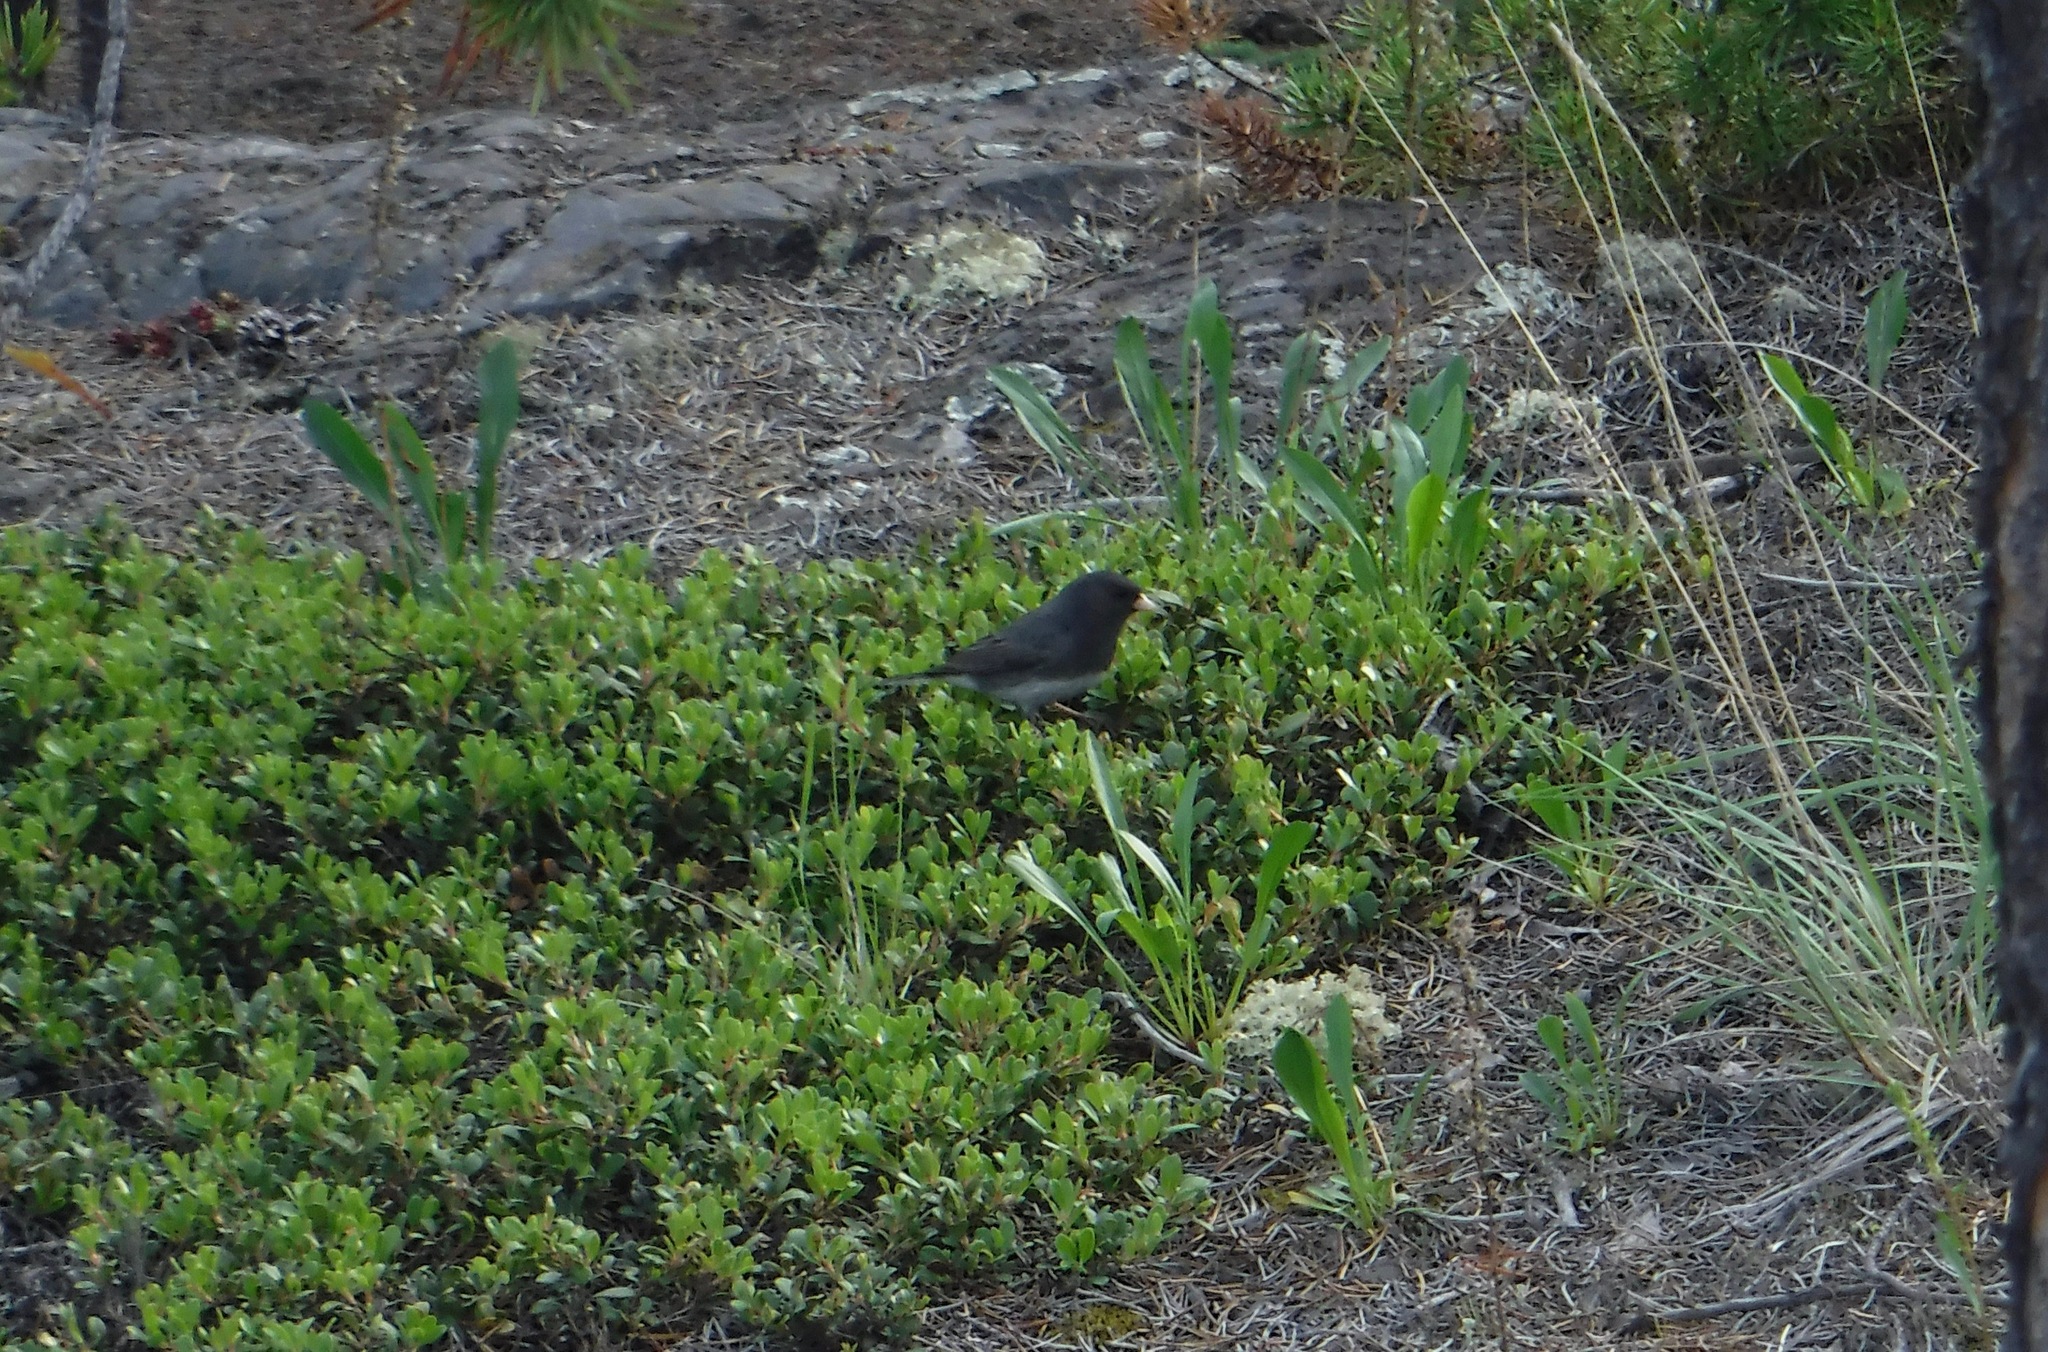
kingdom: Animalia
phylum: Chordata
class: Aves
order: Passeriformes
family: Passerellidae
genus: Junco
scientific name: Junco hyemalis
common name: Dark-eyed junco
